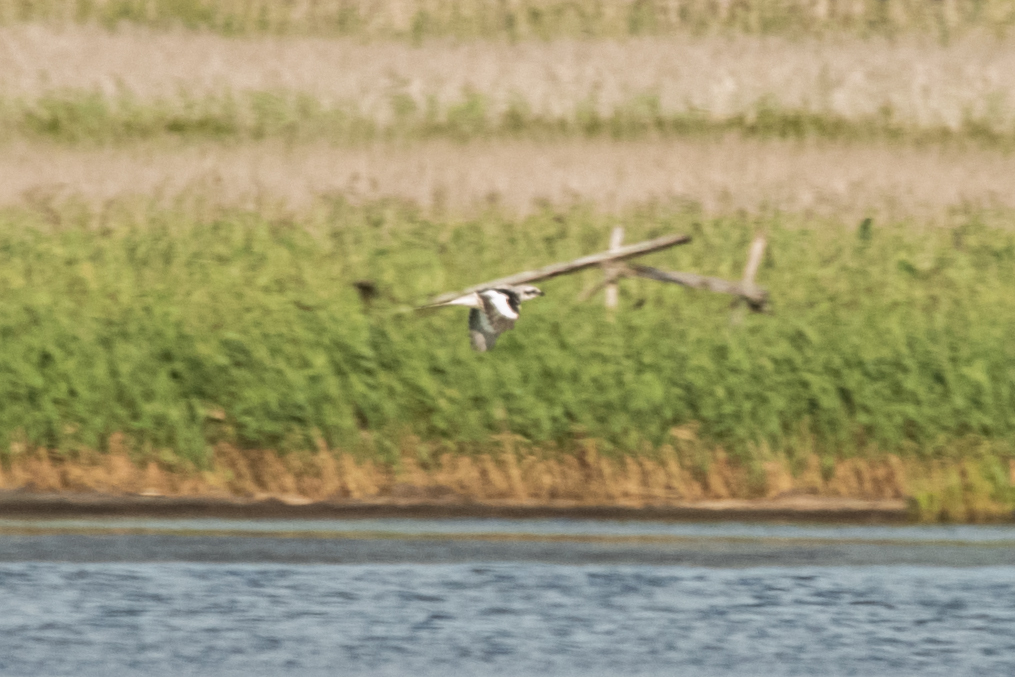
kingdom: Animalia
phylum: Chordata
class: Aves
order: Passeriformes
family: Laniidae
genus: Lanius
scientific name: Lanius sphenocercus
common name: Chinese grey shrike
